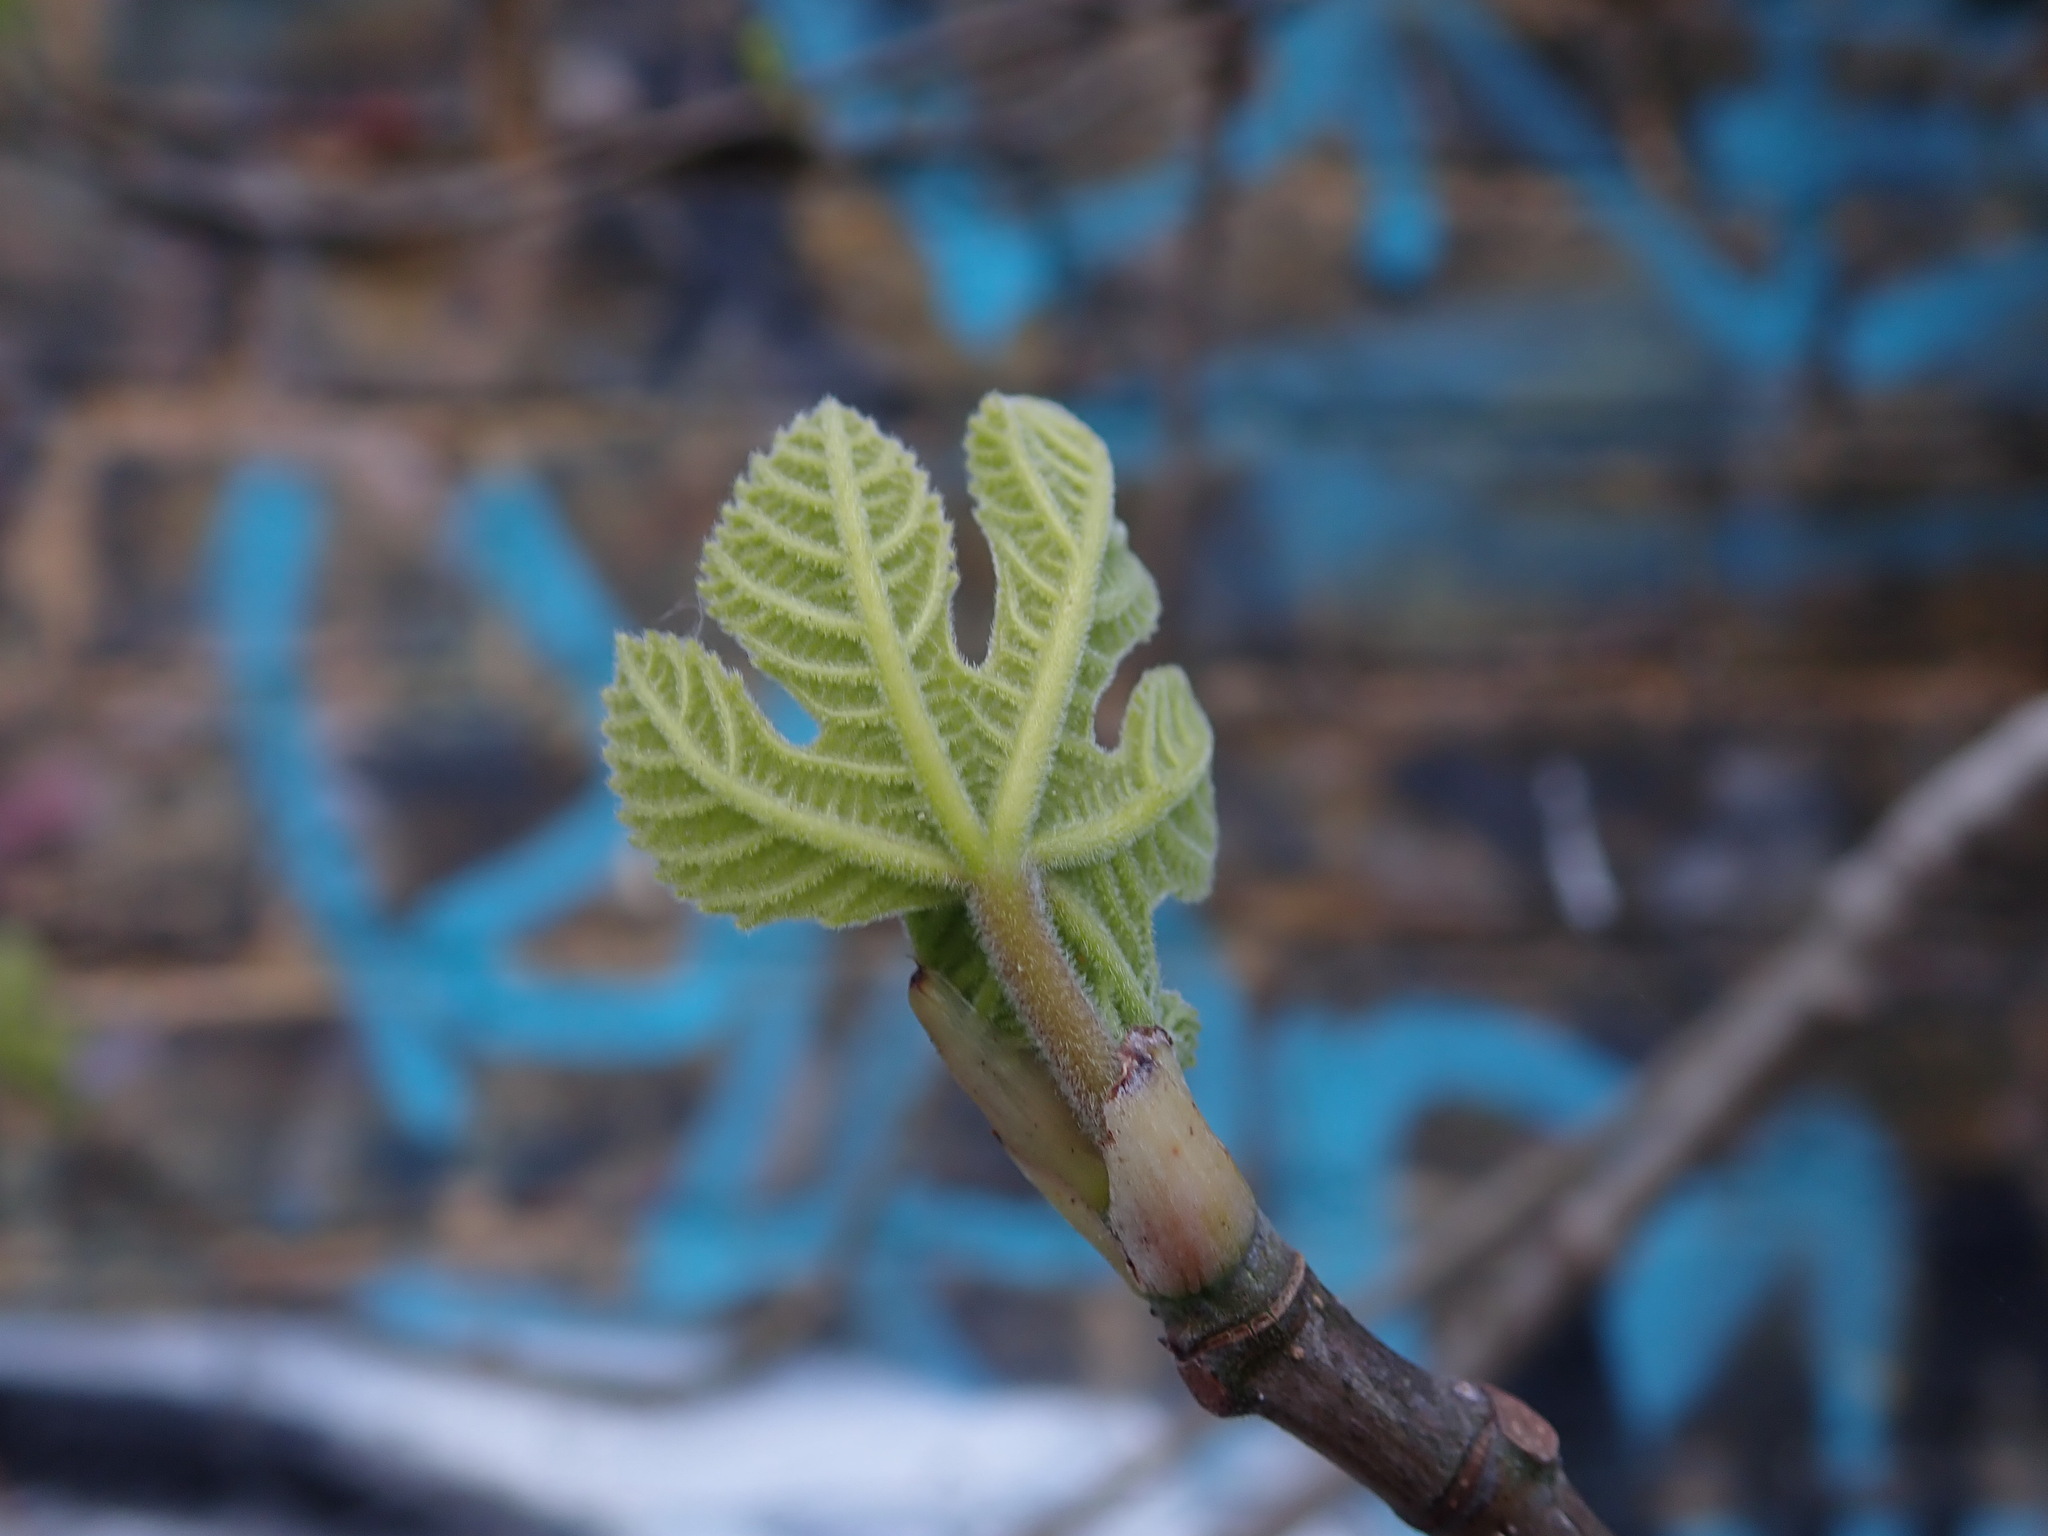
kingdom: Plantae
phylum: Tracheophyta
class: Magnoliopsida
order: Rosales
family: Moraceae
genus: Ficus
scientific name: Ficus carica
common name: Fig
